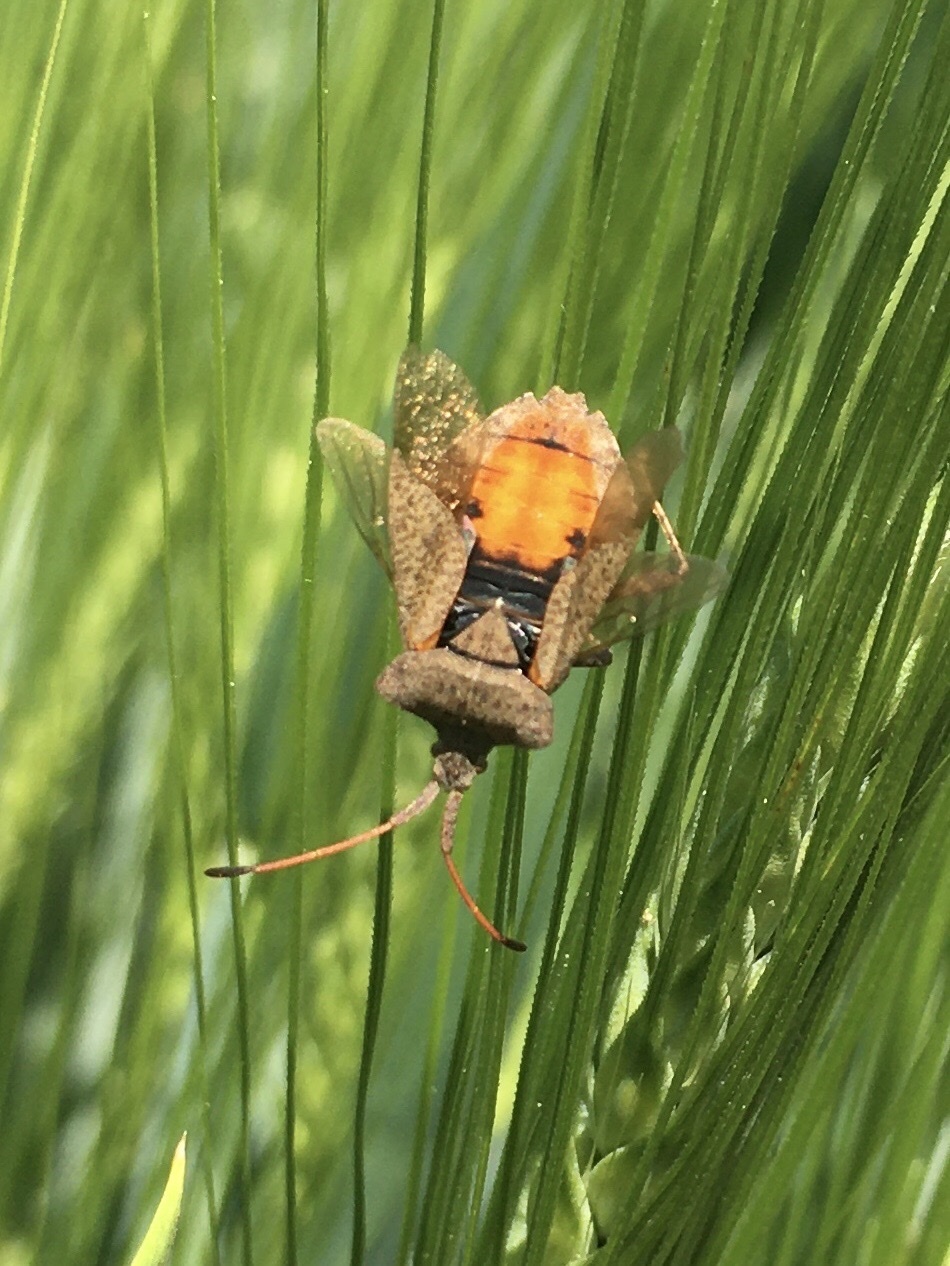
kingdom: Animalia
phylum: Arthropoda
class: Insecta
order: Hemiptera
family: Coreidae
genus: Coreus
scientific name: Coreus marginatus
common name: Dock bug
